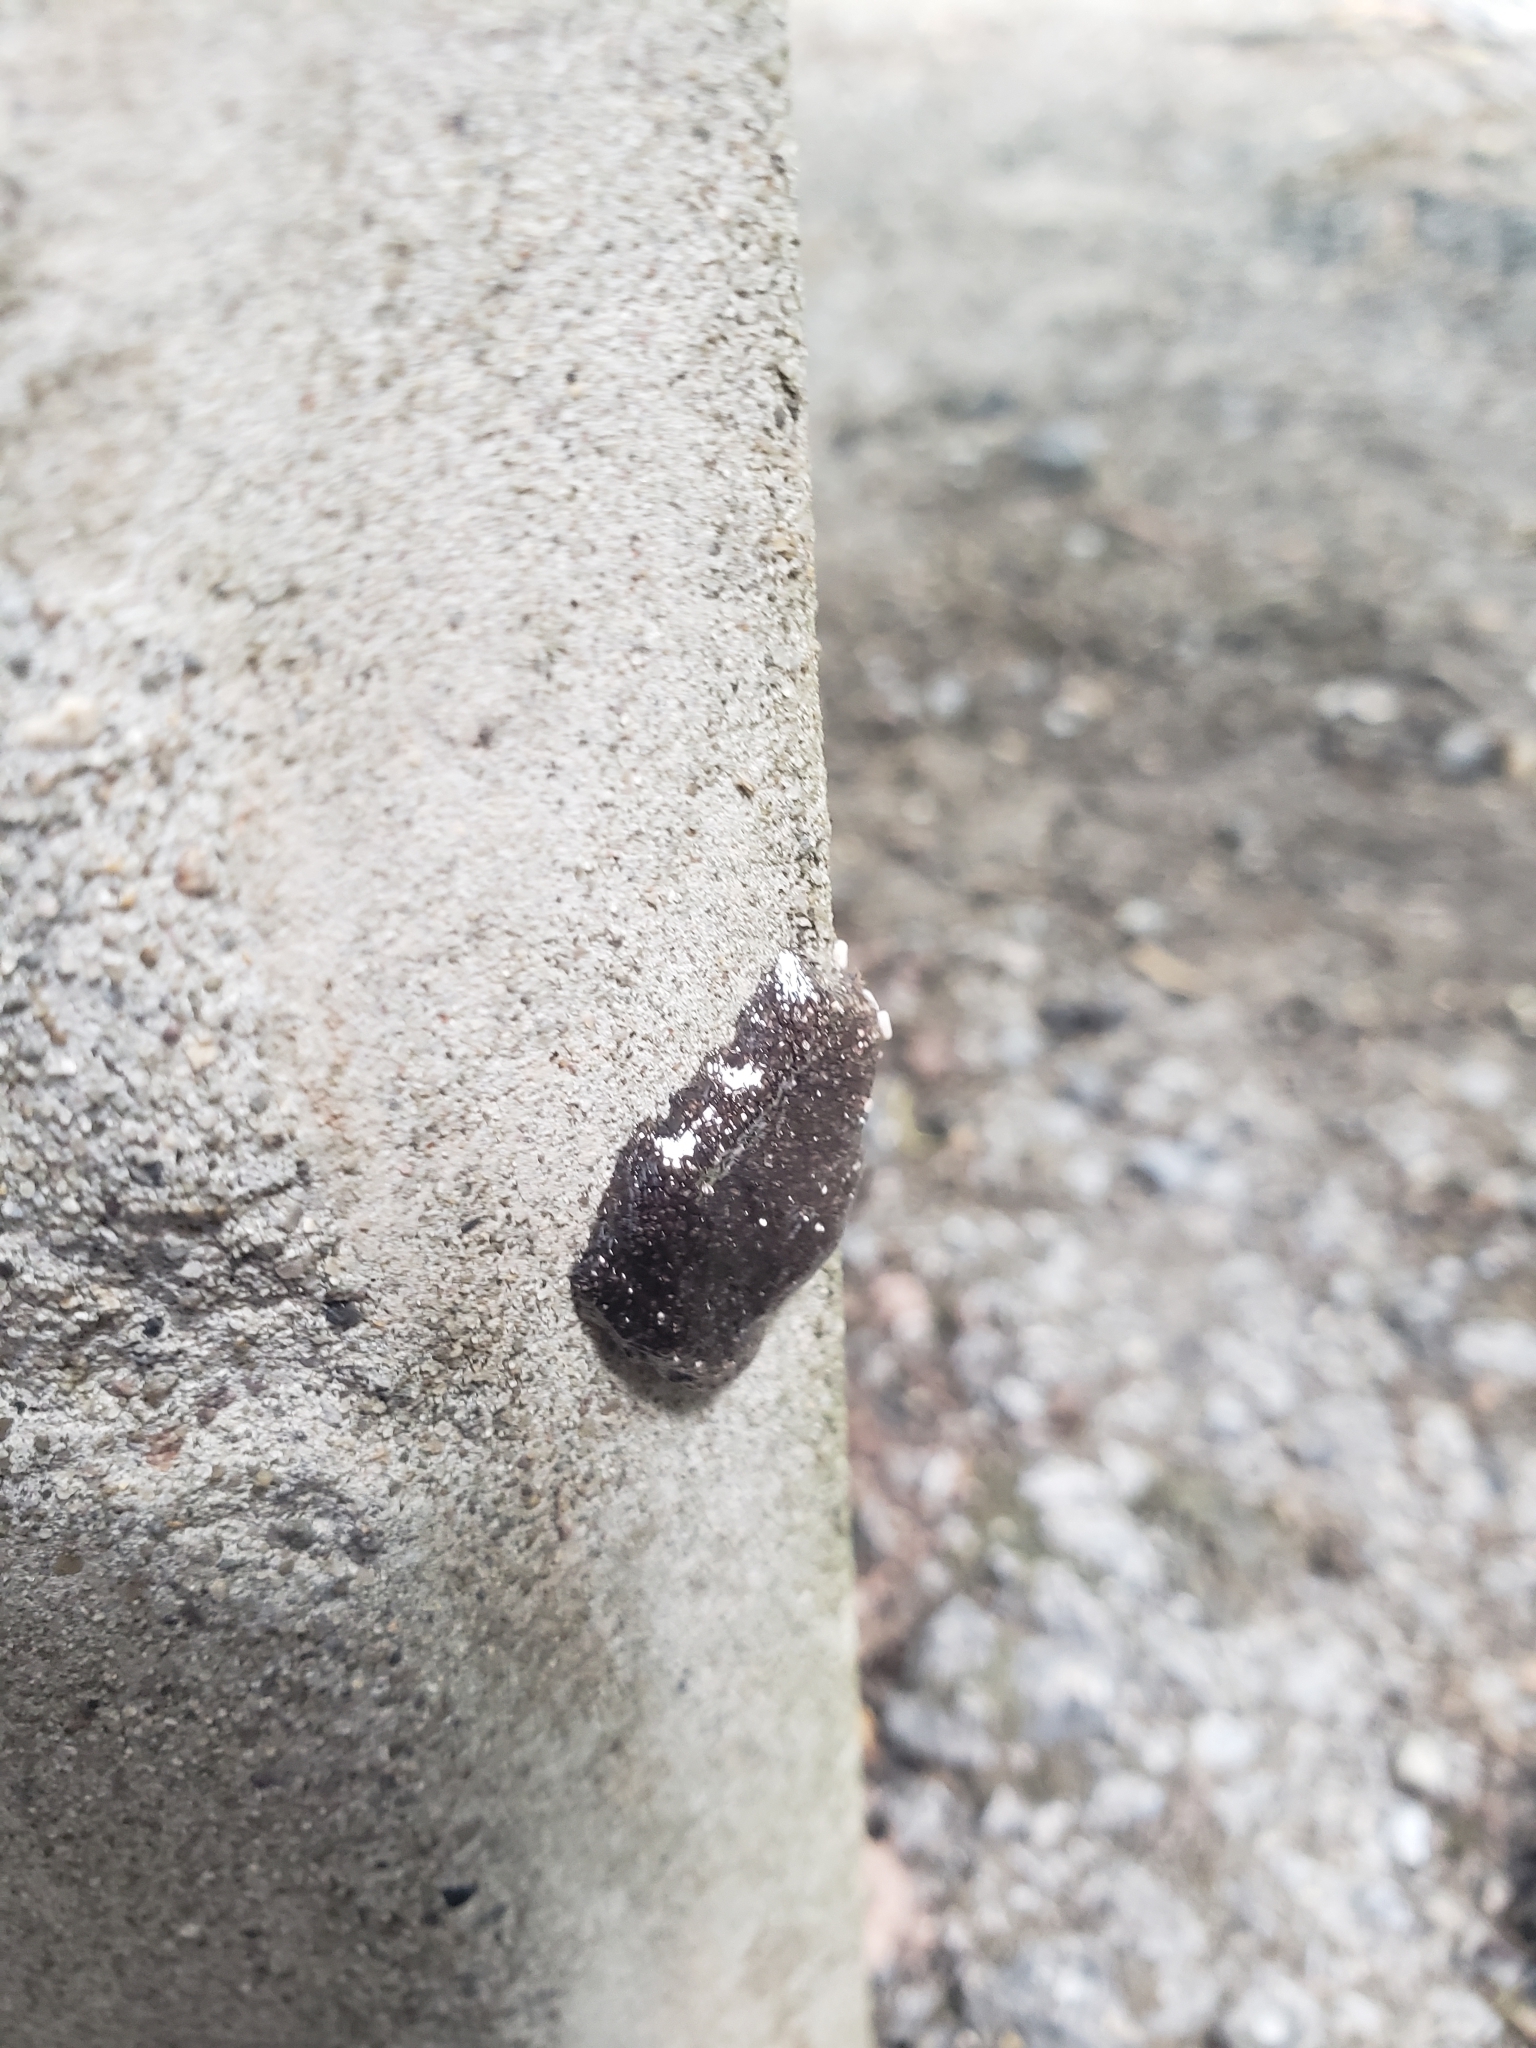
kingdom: Animalia
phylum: Arthropoda
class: Insecta
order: Lepidoptera
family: Lasiocampidae
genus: Malacosoma
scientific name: Malacosoma americana
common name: Eastern tent caterpillar moth
